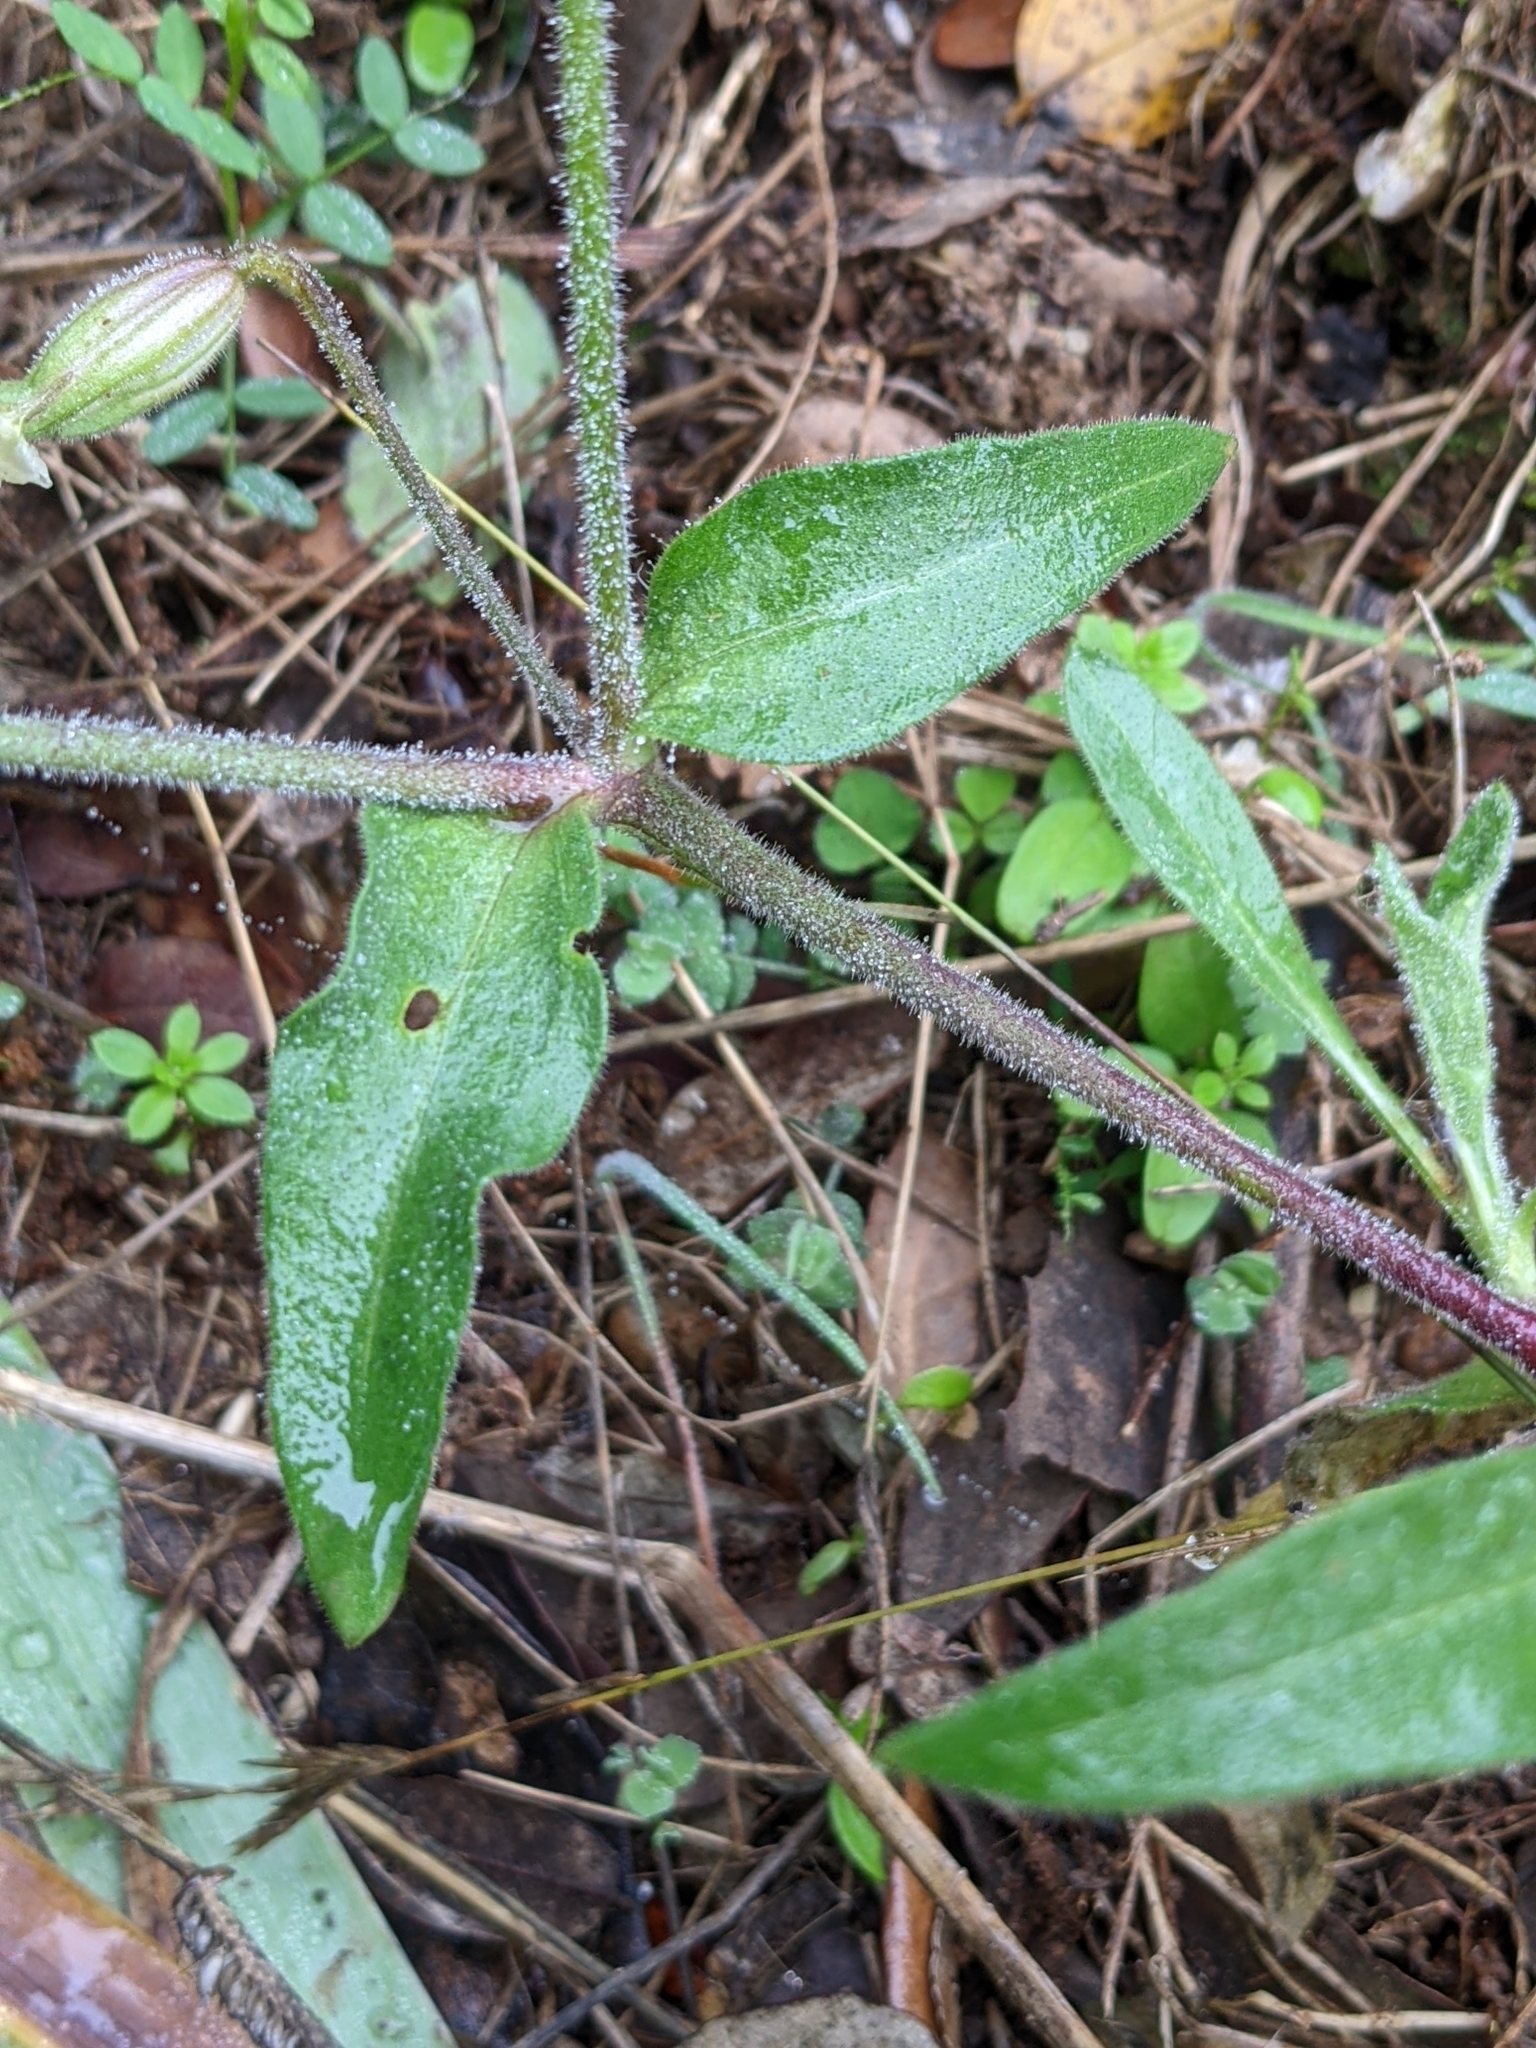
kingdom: Plantae
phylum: Tracheophyta
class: Magnoliopsida
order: Caryophyllales
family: Caryophyllaceae
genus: Silene
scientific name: Silene latifolia
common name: White campion
